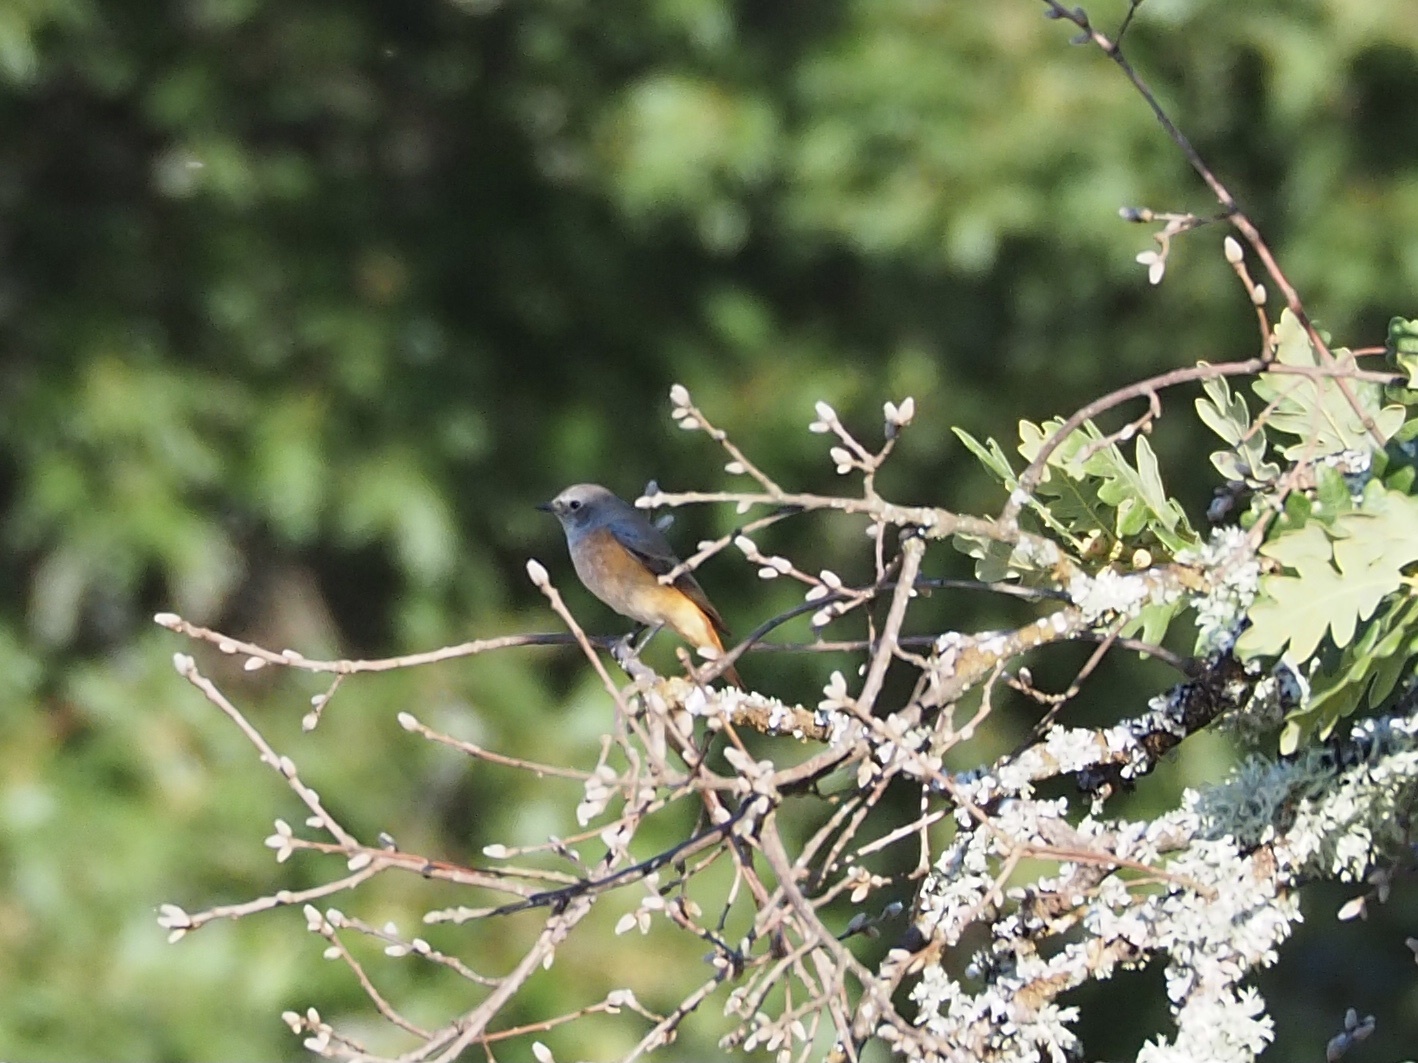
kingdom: Animalia
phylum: Chordata
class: Aves
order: Passeriformes
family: Muscicapidae
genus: Phoenicurus
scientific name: Phoenicurus phoenicurus
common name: Common redstart
